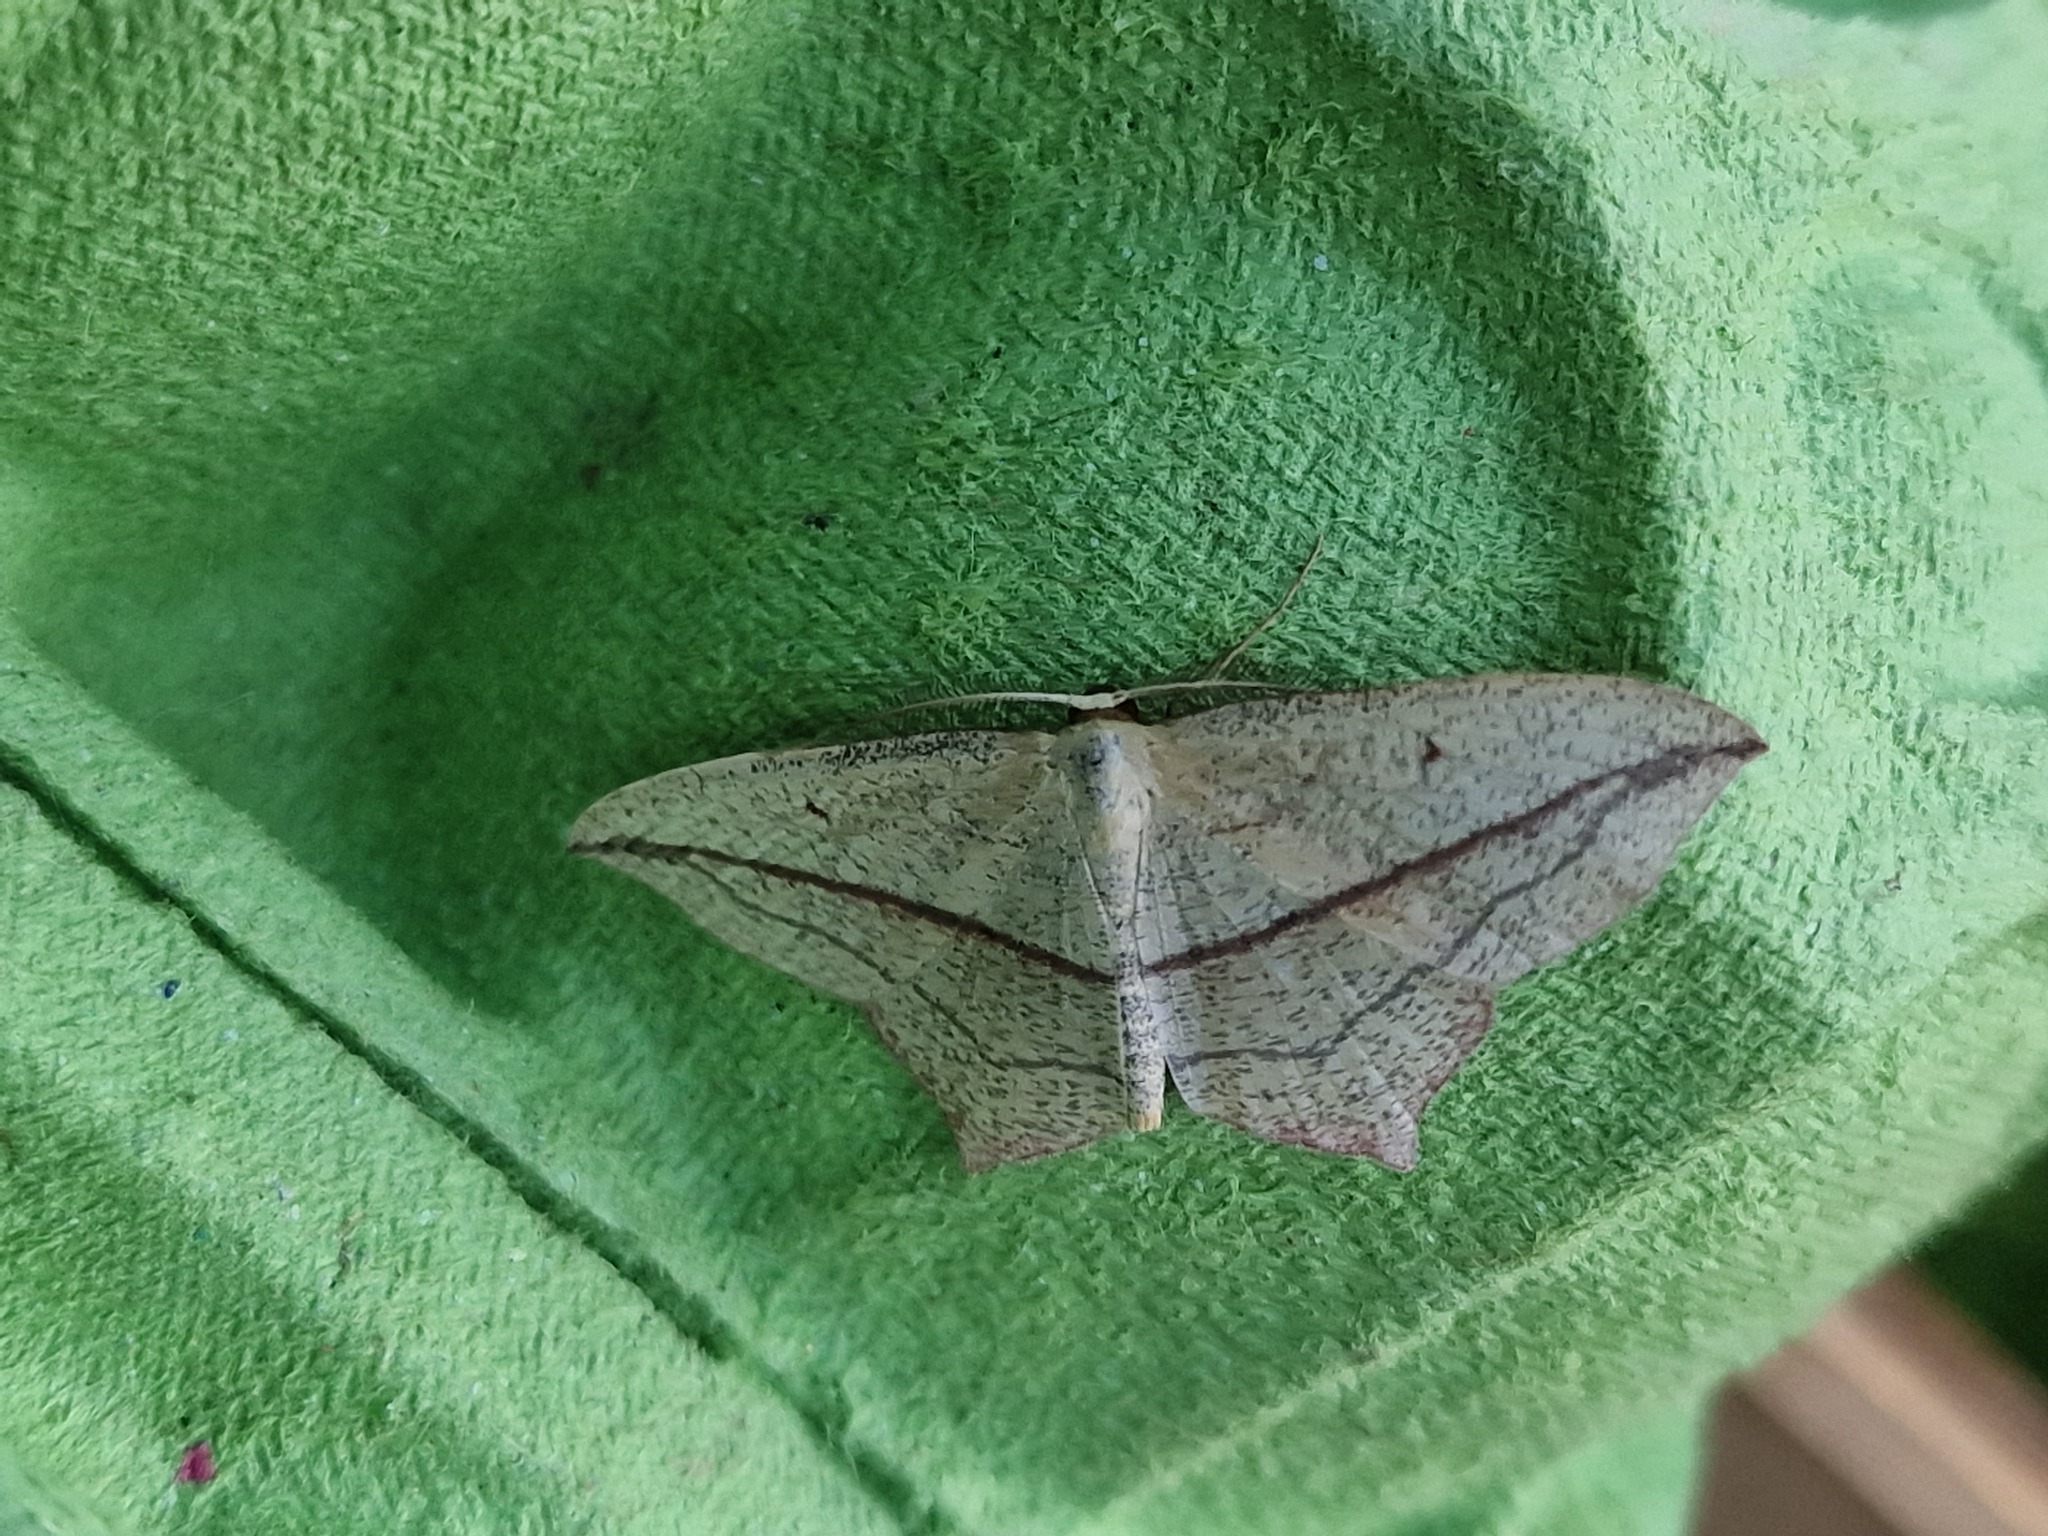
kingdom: Animalia
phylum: Arthropoda
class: Insecta
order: Lepidoptera
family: Geometridae
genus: Timandra
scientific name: Timandra comae
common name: Blood-vein
